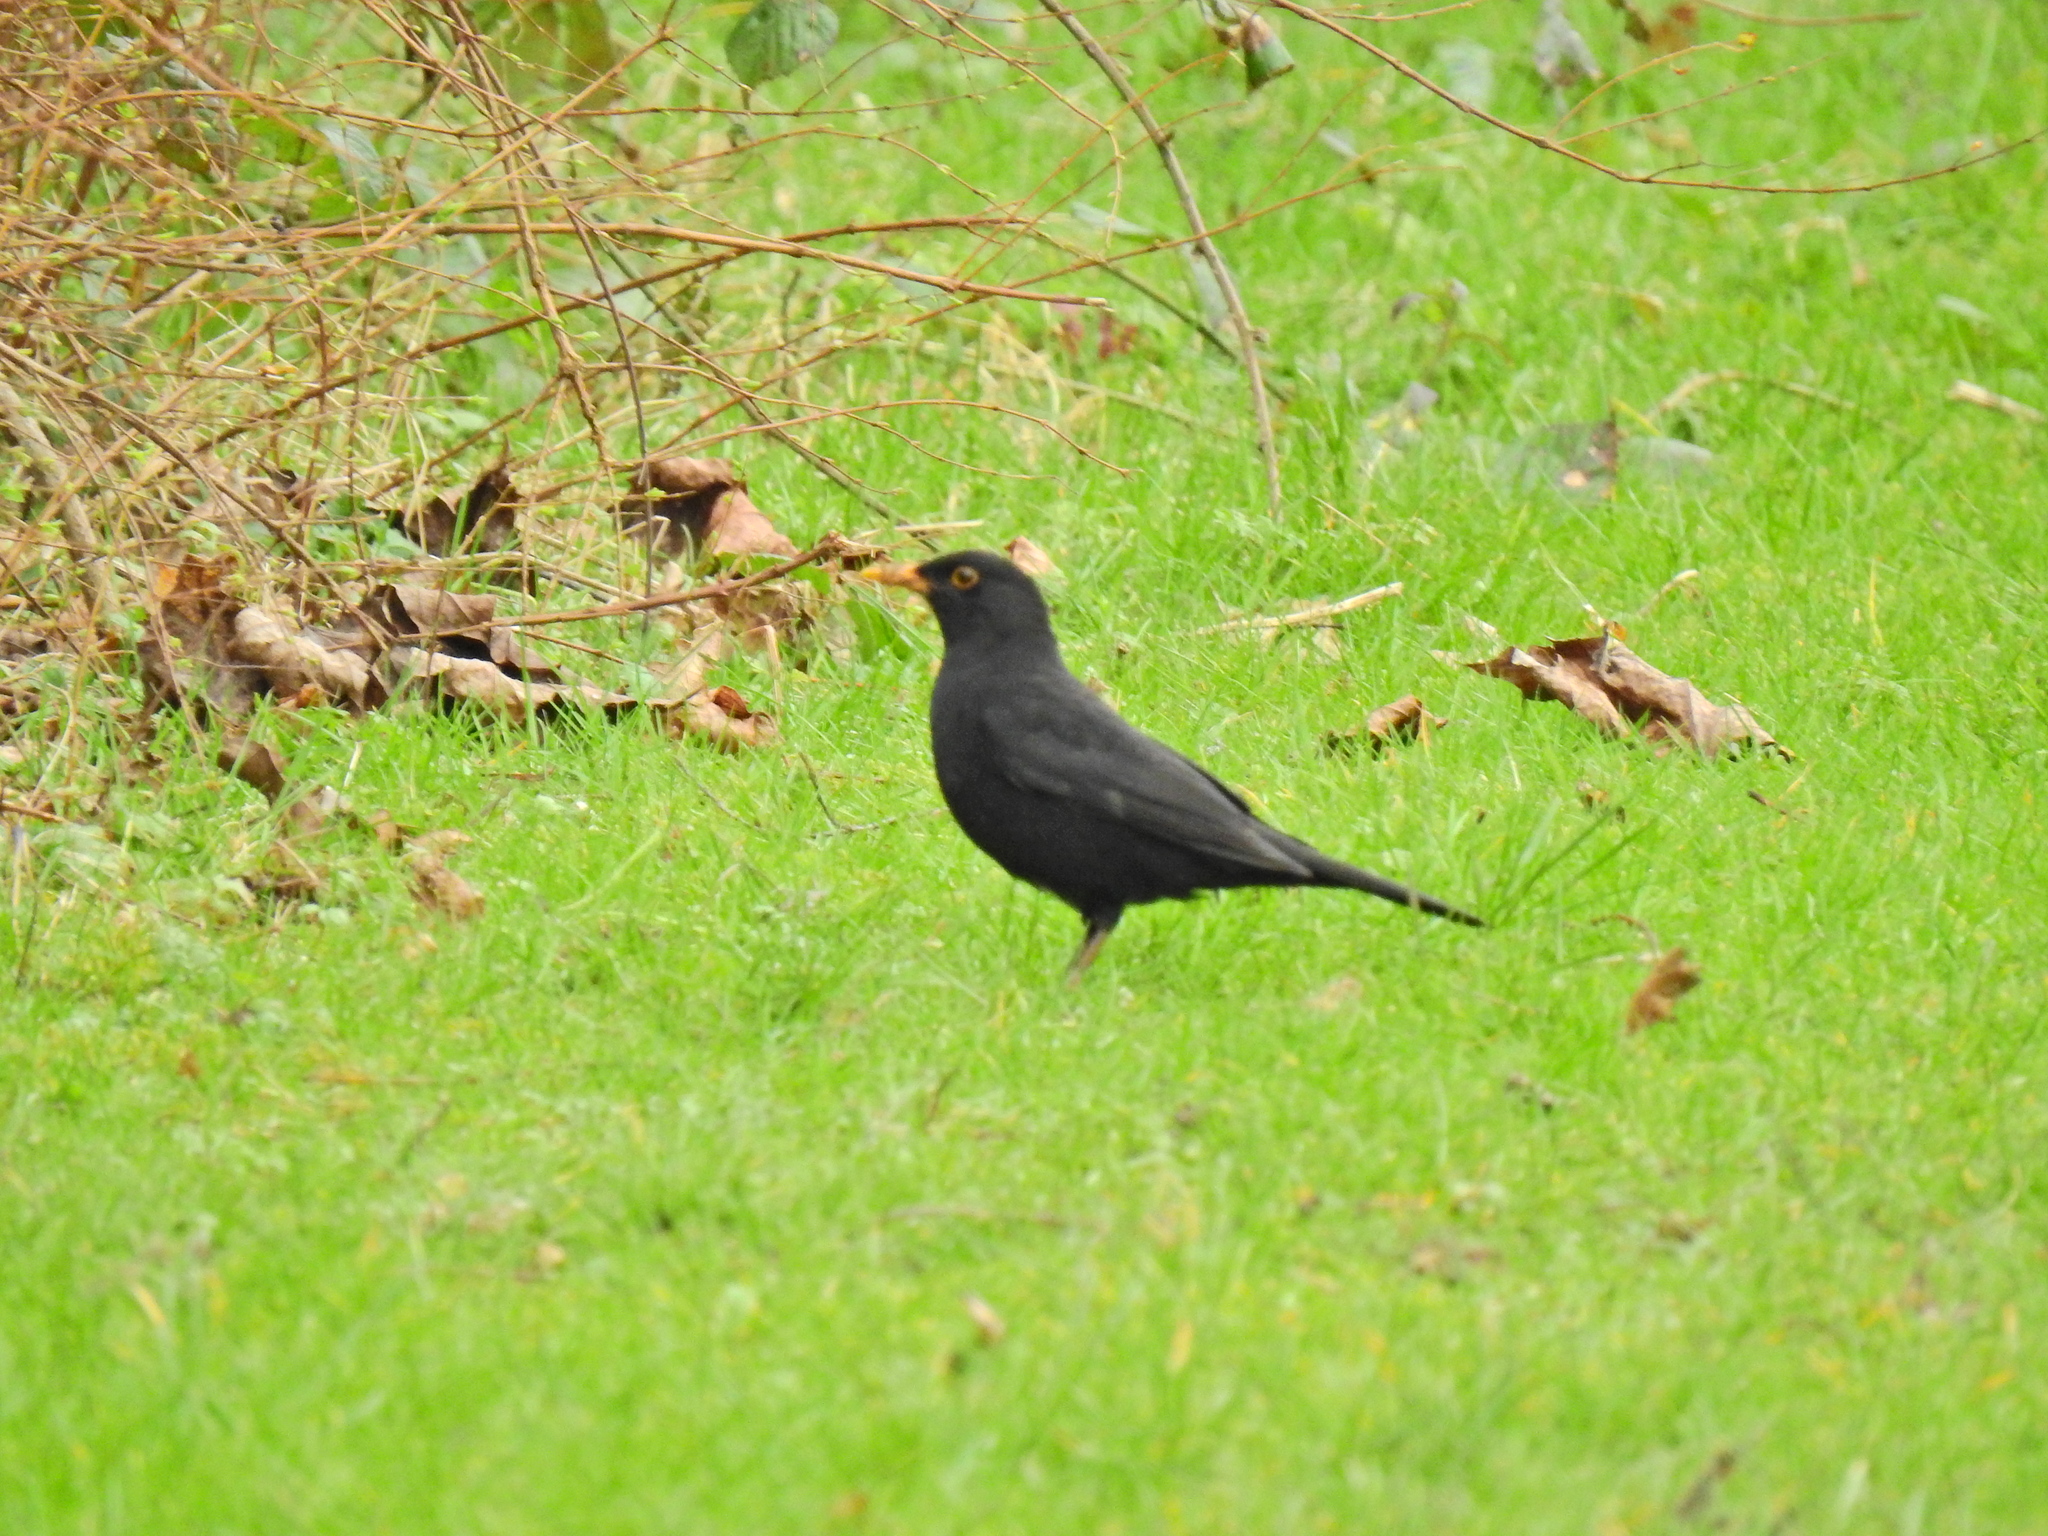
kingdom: Animalia
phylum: Chordata
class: Aves
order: Passeriformes
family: Turdidae
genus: Turdus
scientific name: Turdus merula
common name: Common blackbird
